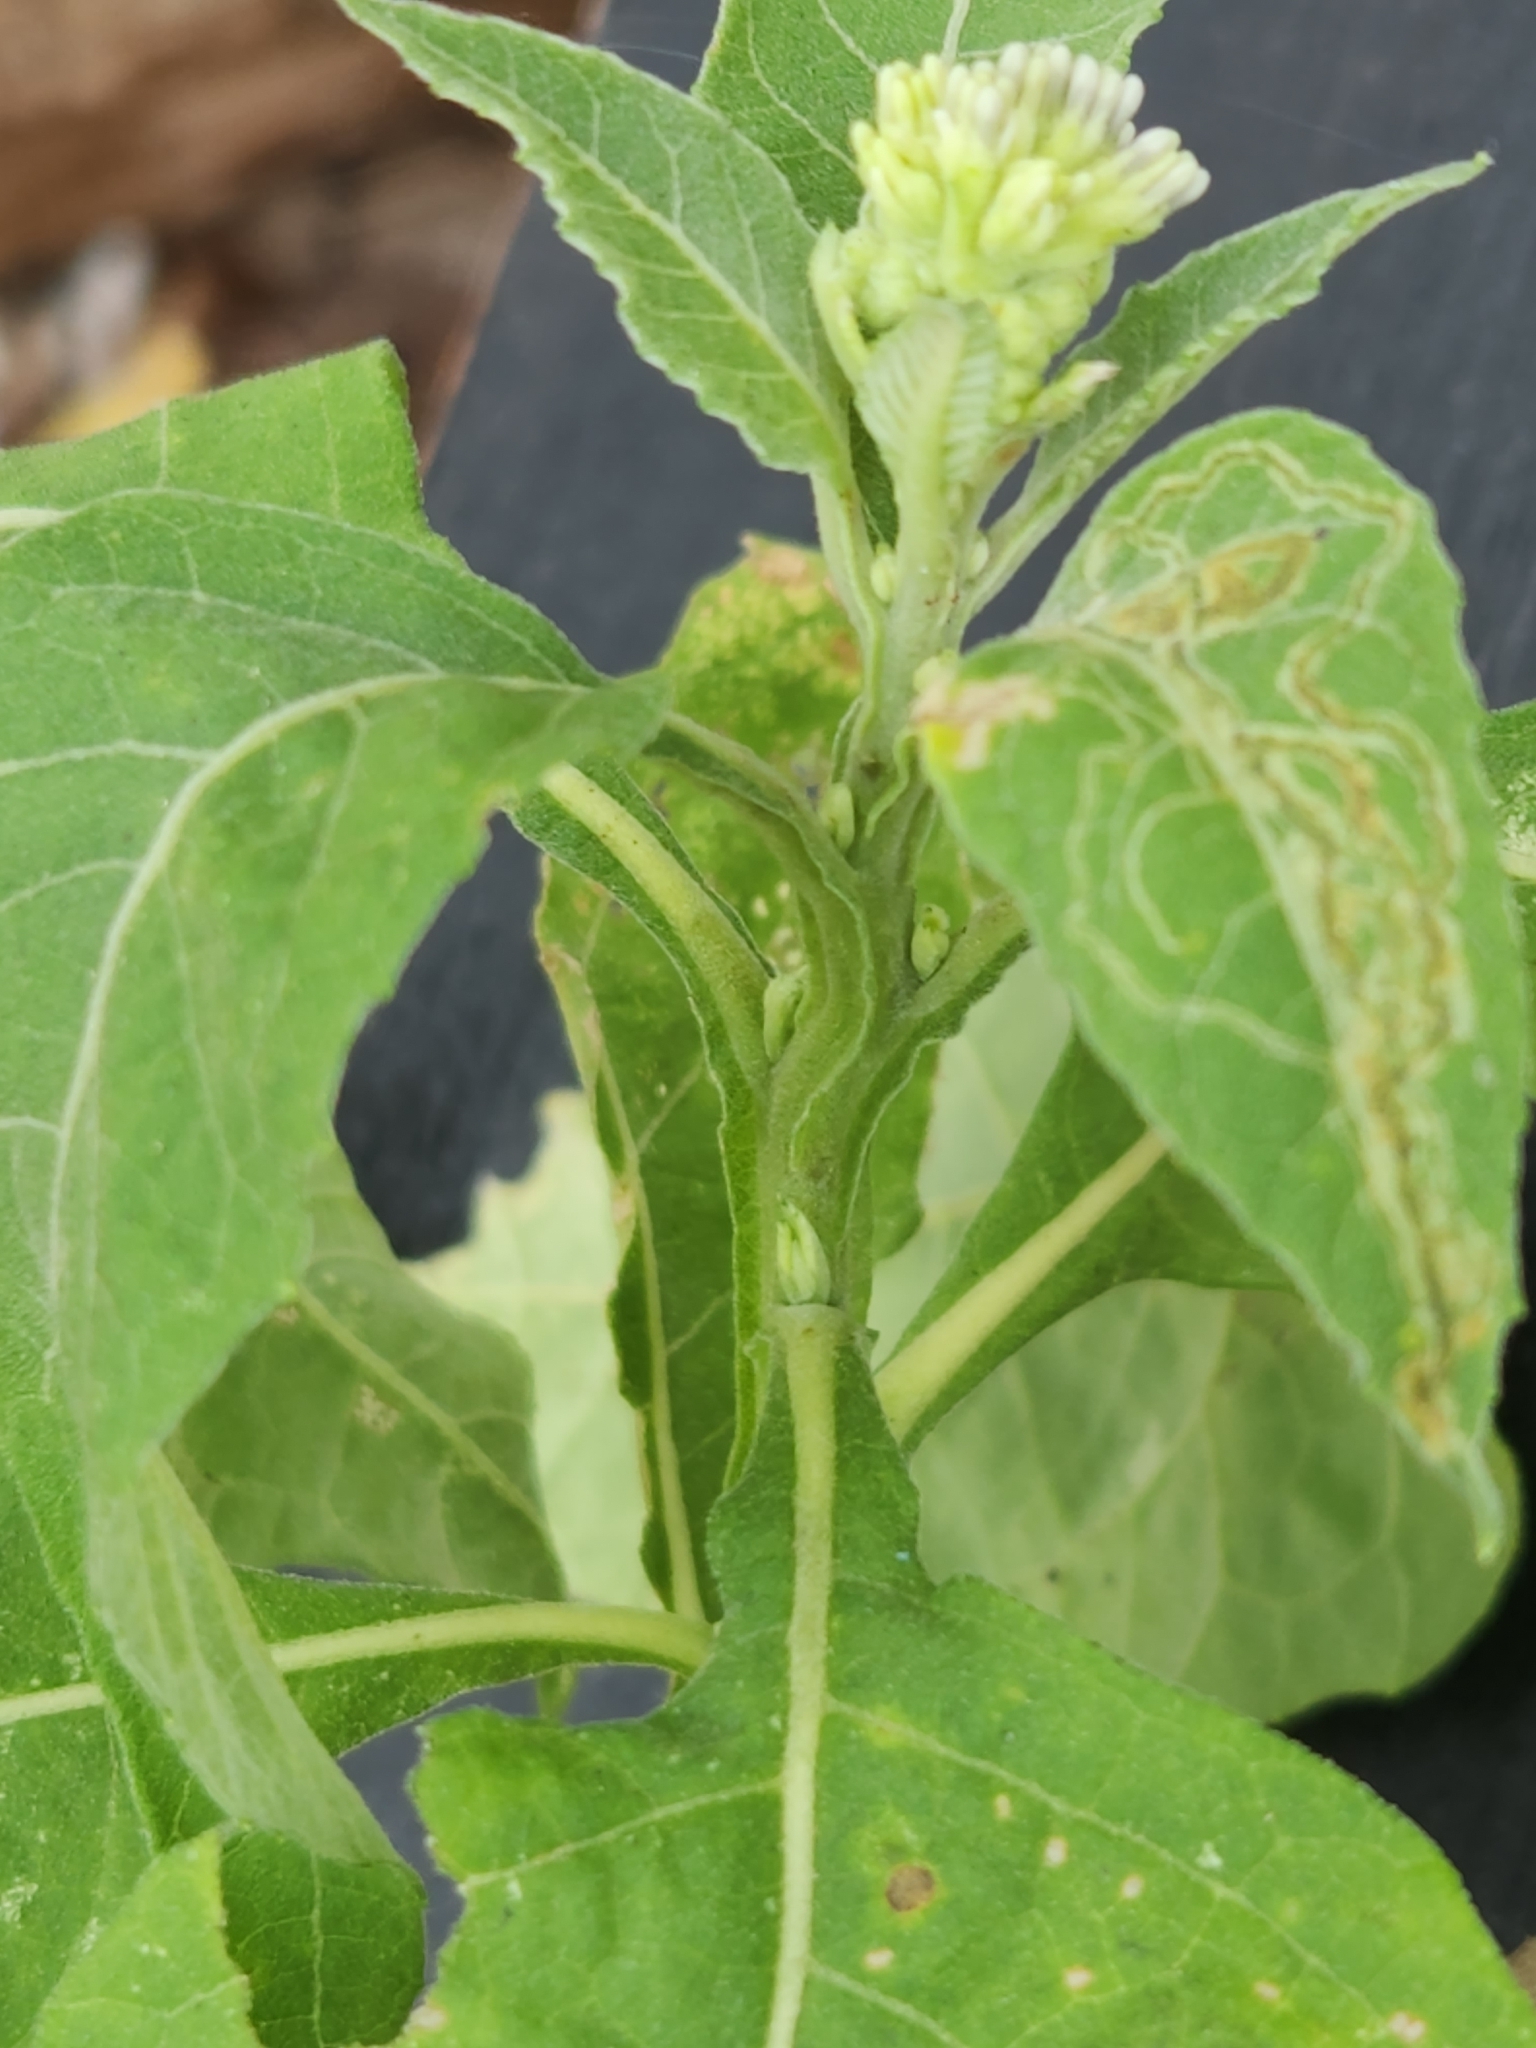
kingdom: Plantae
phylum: Tracheophyta
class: Magnoliopsida
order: Asterales
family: Asteraceae
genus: Verbesina
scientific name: Verbesina virginica
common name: Frostweed
